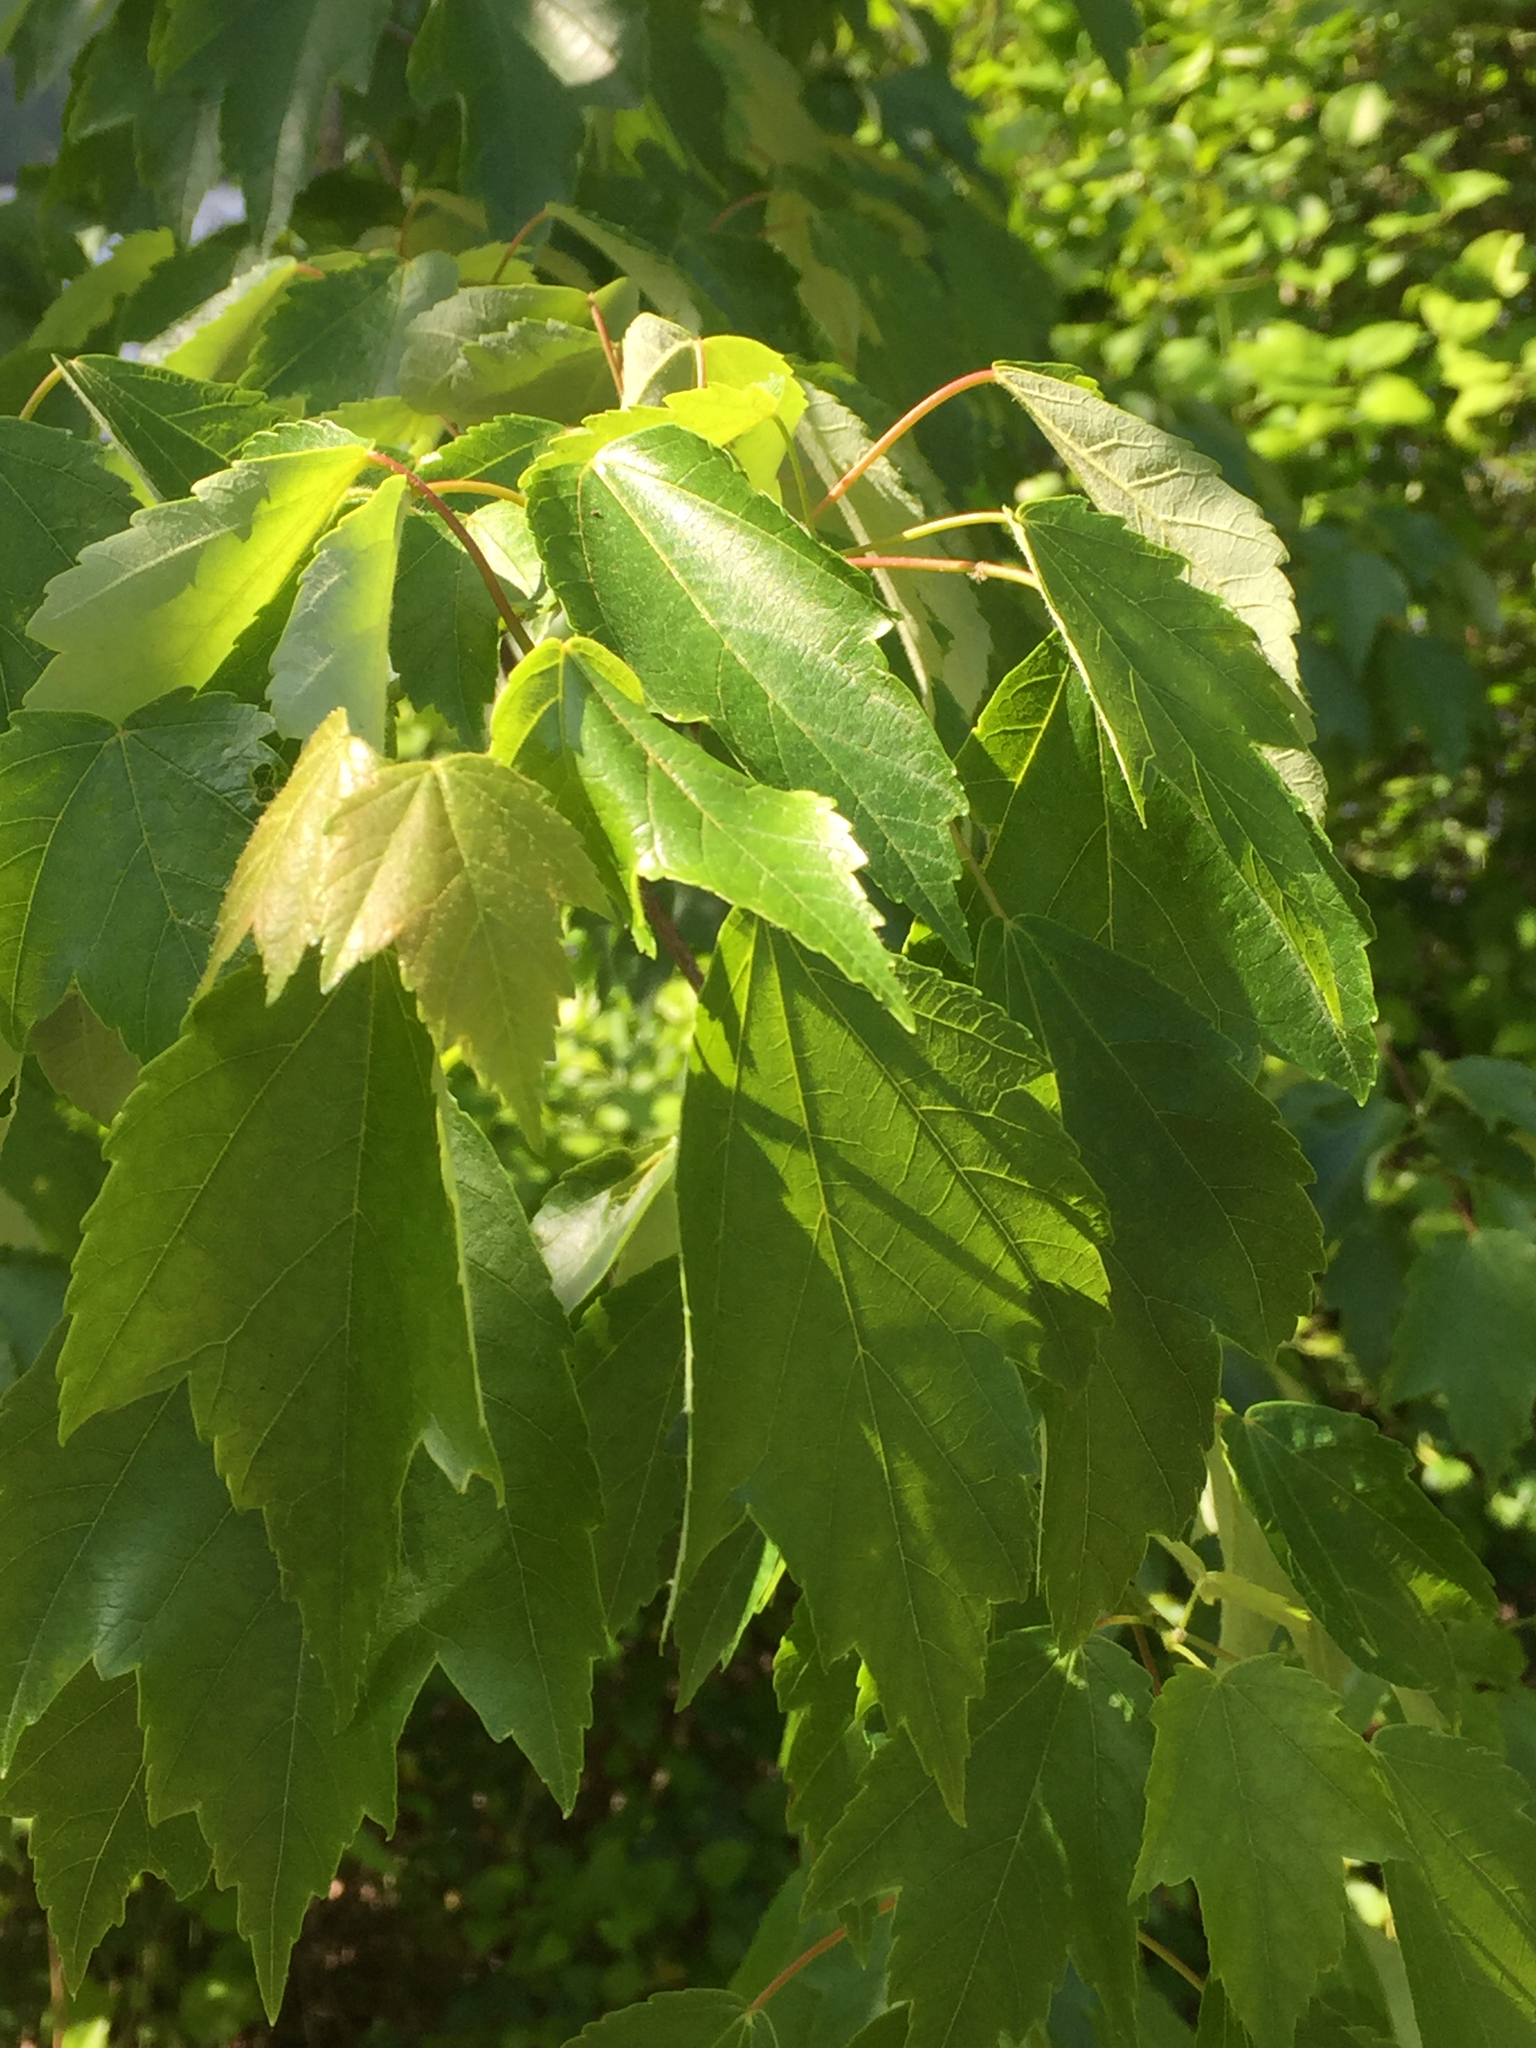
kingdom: Plantae
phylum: Tracheophyta
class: Magnoliopsida
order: Sapindales
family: Sapindaceae
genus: Acer
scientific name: Acer rubrum
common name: Red maple
